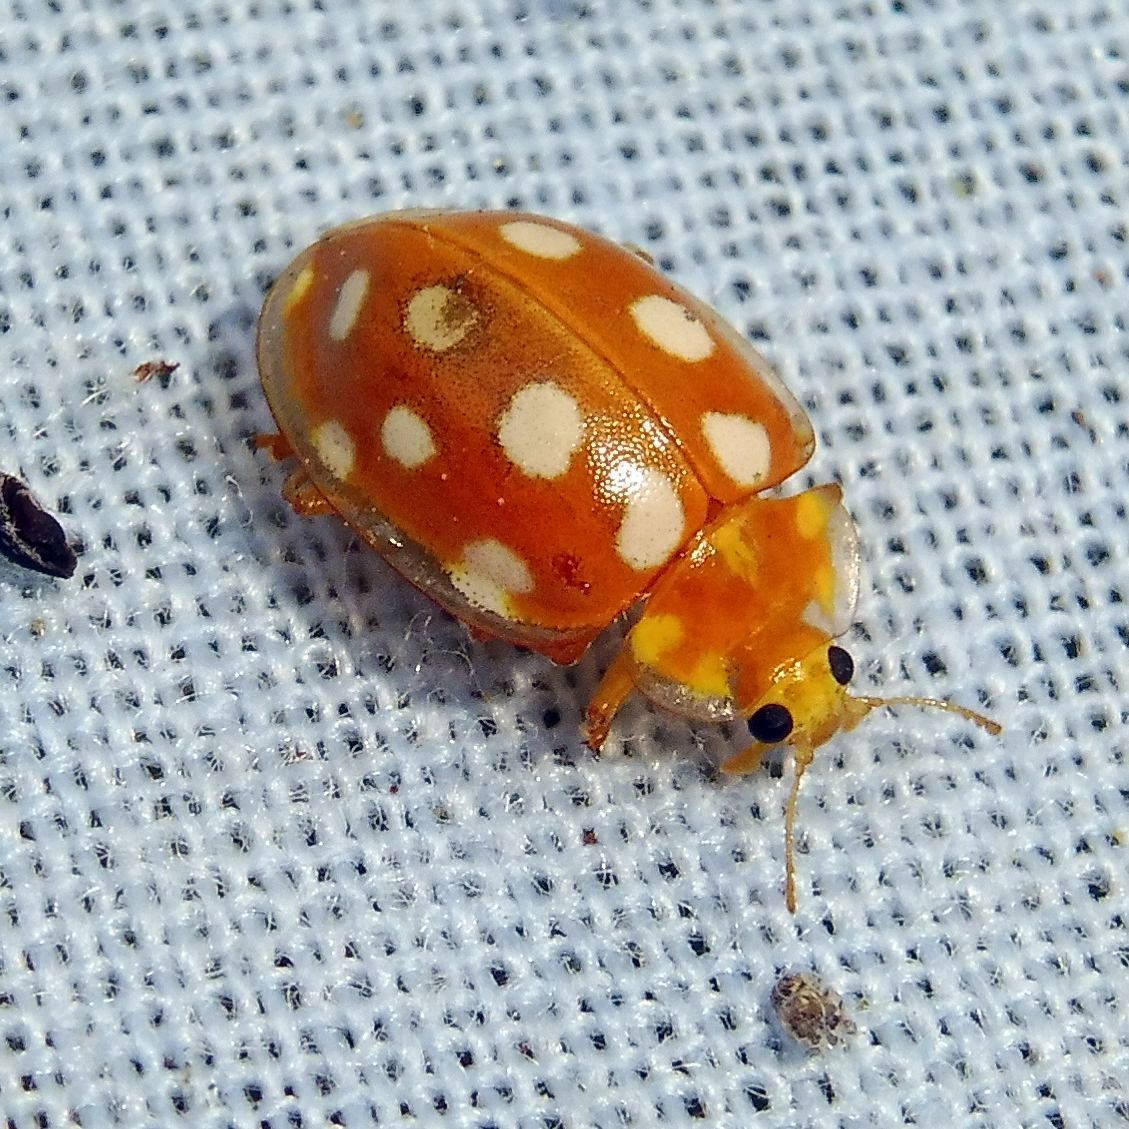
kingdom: Animalia
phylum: Arthropoda
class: Insecta
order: Coleoptera
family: Coccinellidae
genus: Halyzia
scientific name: Halyzia sedecimguttata
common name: Orange ladybird
